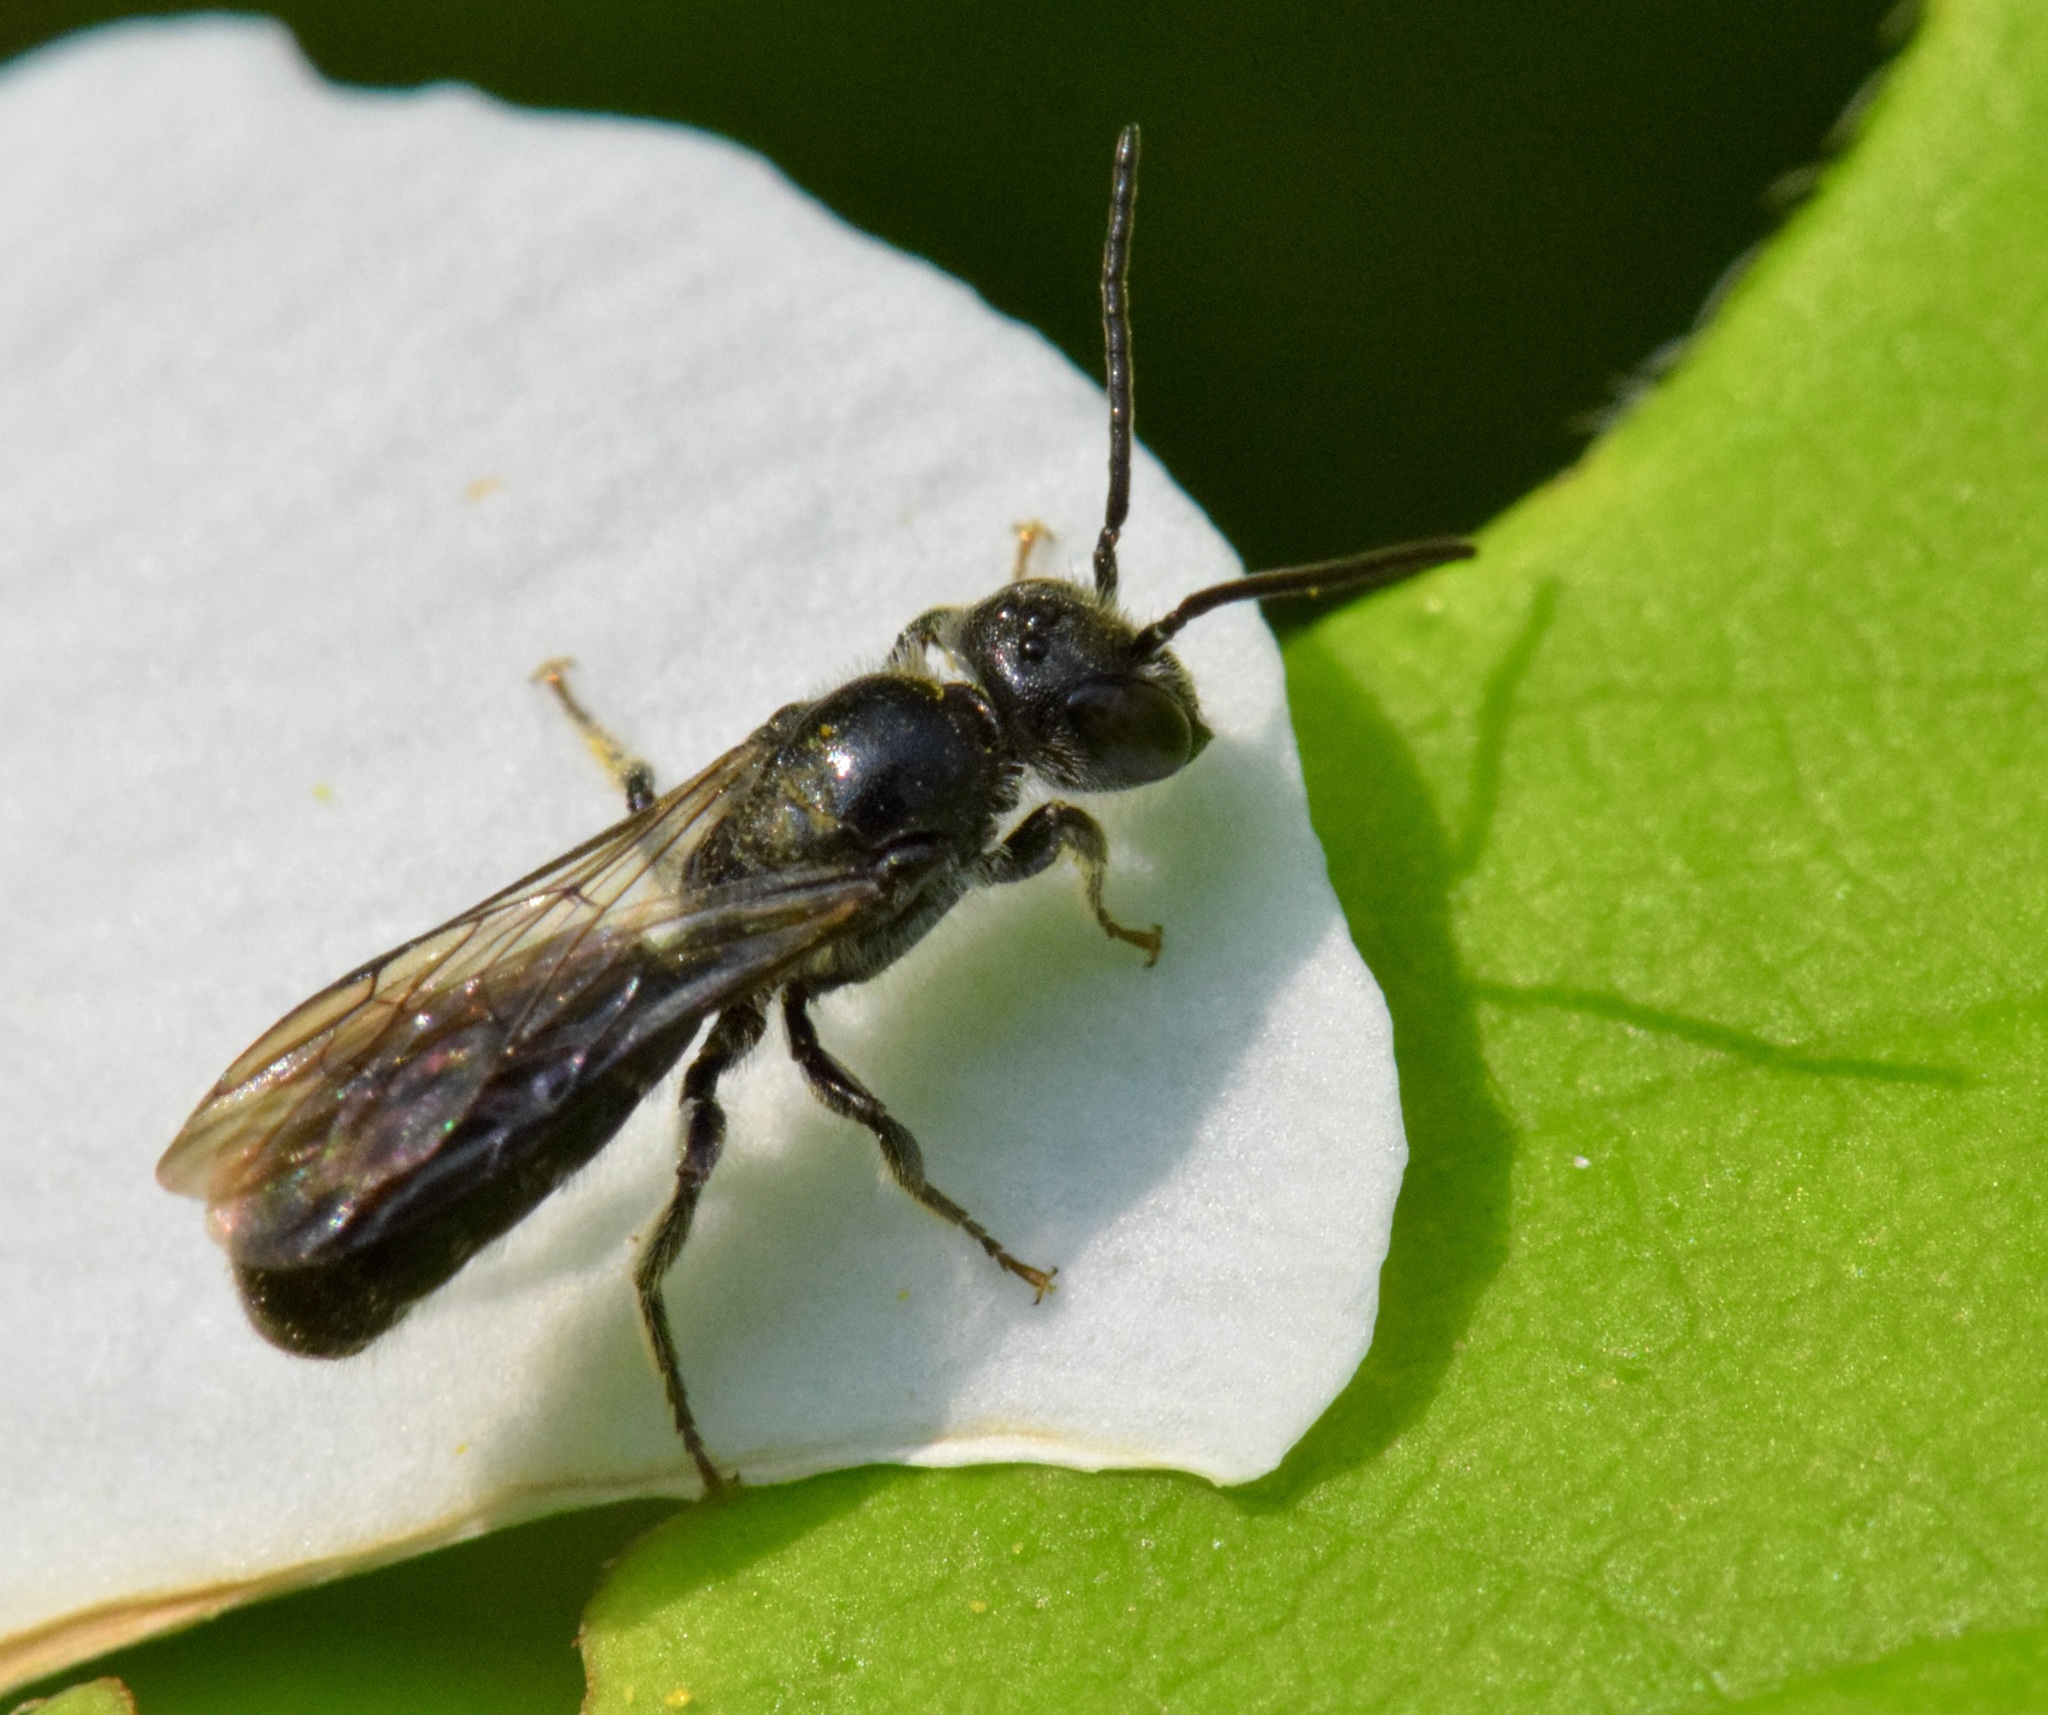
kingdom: Animalia
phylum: Arthropoda
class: Insecta
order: Hymenoptera
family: Megachilidae
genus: Chelostoma
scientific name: Chelostoma philadelphi
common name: Mock-orange scissor bee
